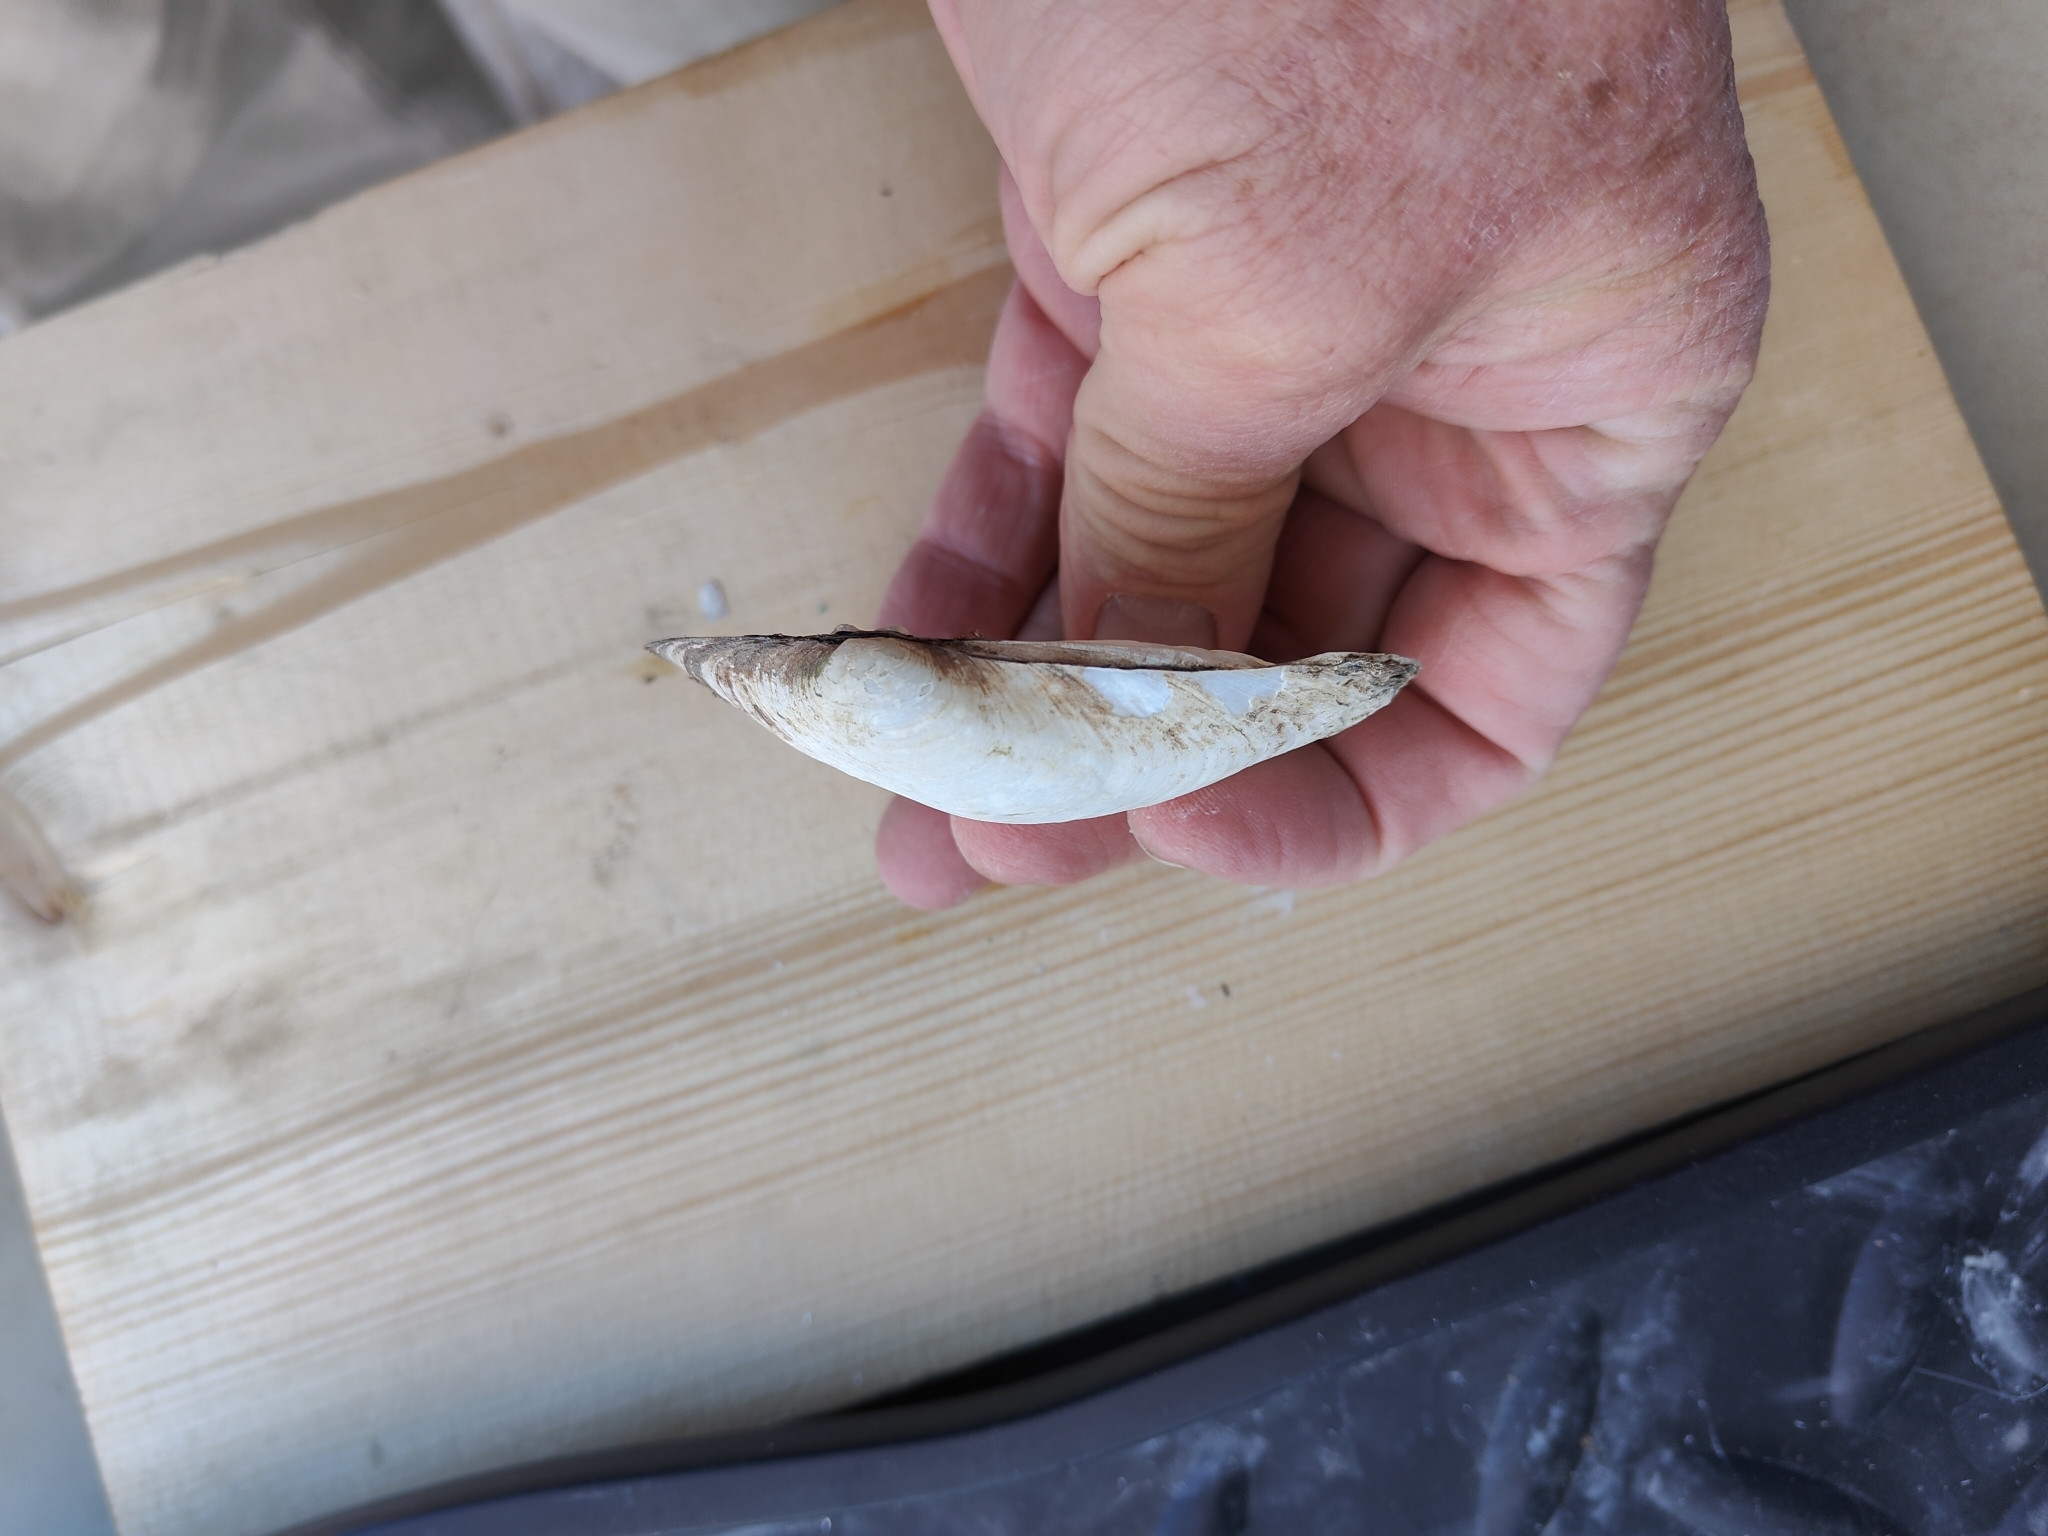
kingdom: Animalia
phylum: Mollusca
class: Bivalvia
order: Unionida
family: Unionidae
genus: Lampsilis
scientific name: Lampsilis cardium
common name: Plain pocketbook
